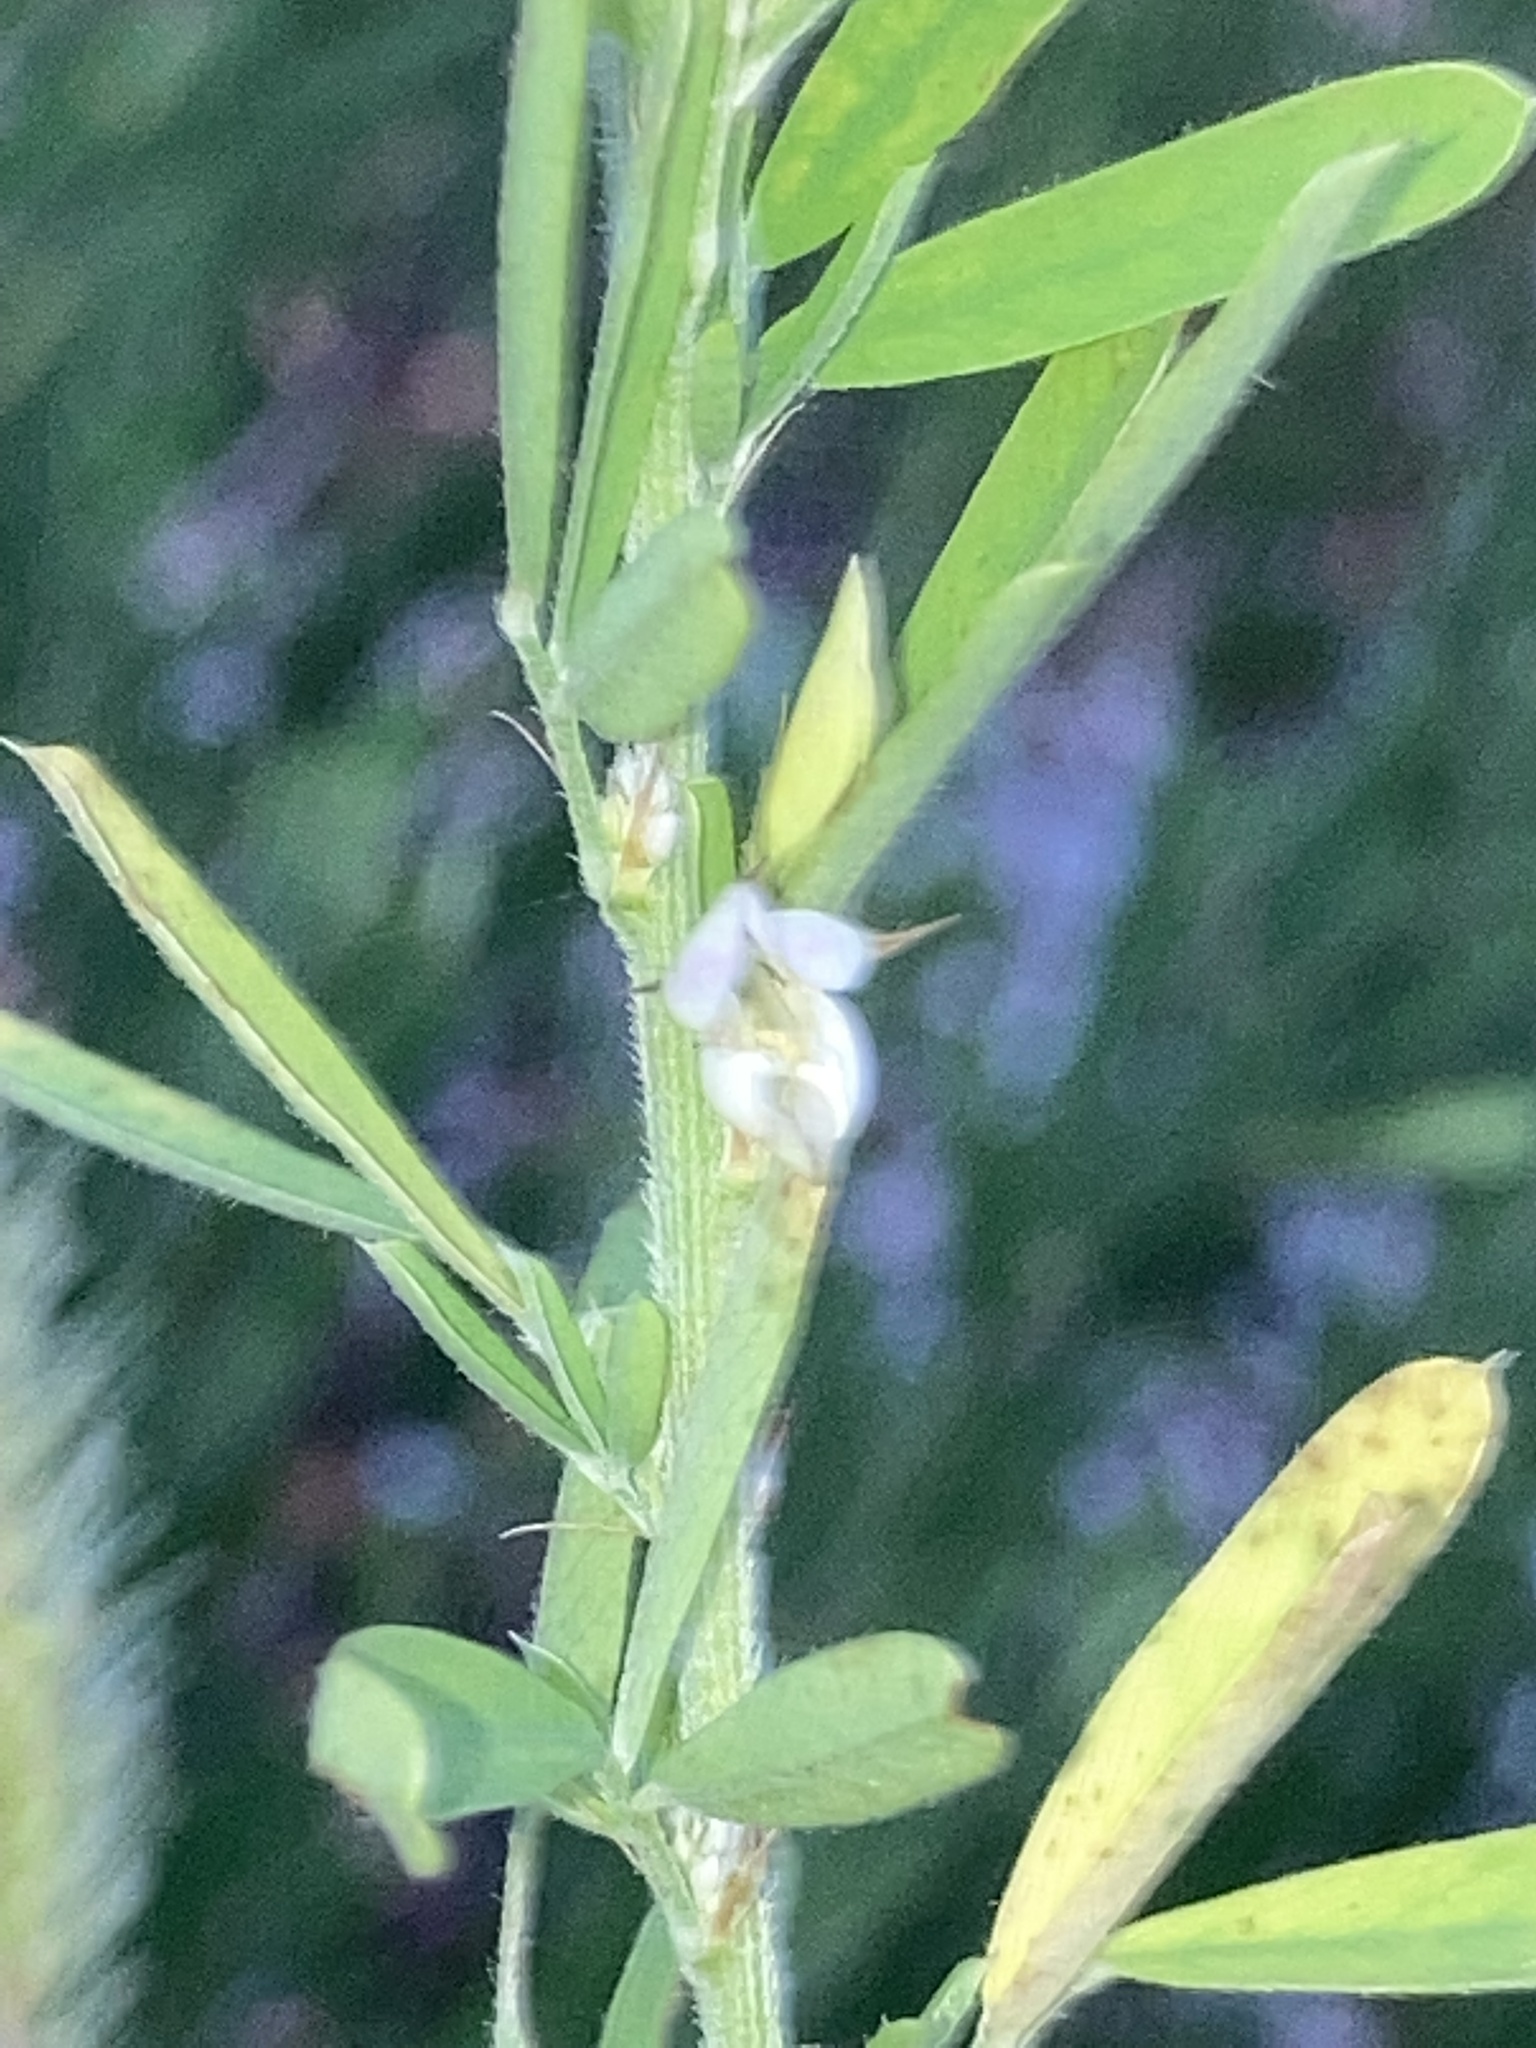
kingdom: Plantae
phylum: Tracheophyta
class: Magnoliopsida
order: Fabales
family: Fabaceae
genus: Lespedeza
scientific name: Lespedeza cuneata
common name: Chinese bush-clover
